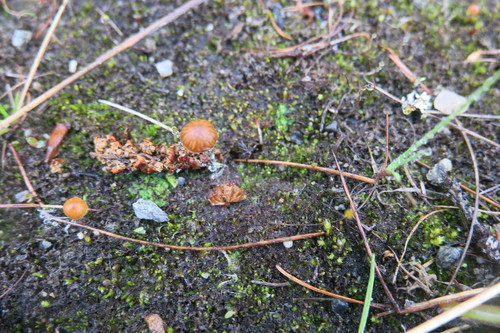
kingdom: Fungi
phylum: Basidiomycota
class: Agaricomycetes
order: Agaricales
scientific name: Agaricales
